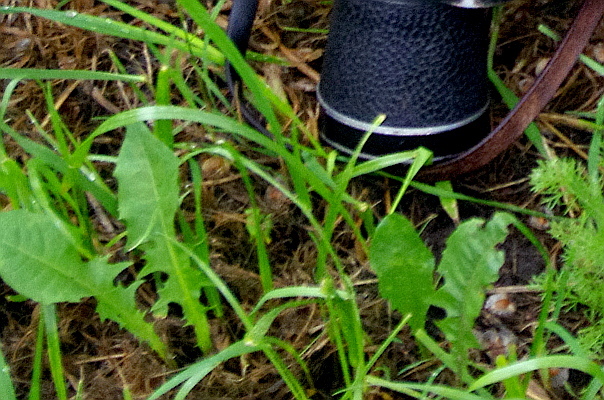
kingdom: Plantae
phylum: Tracheophyta
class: Magnoliopsida
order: Asterales
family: Asteraceae
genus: Taraxacum
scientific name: Taraxacum officinale
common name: Common dandelion
